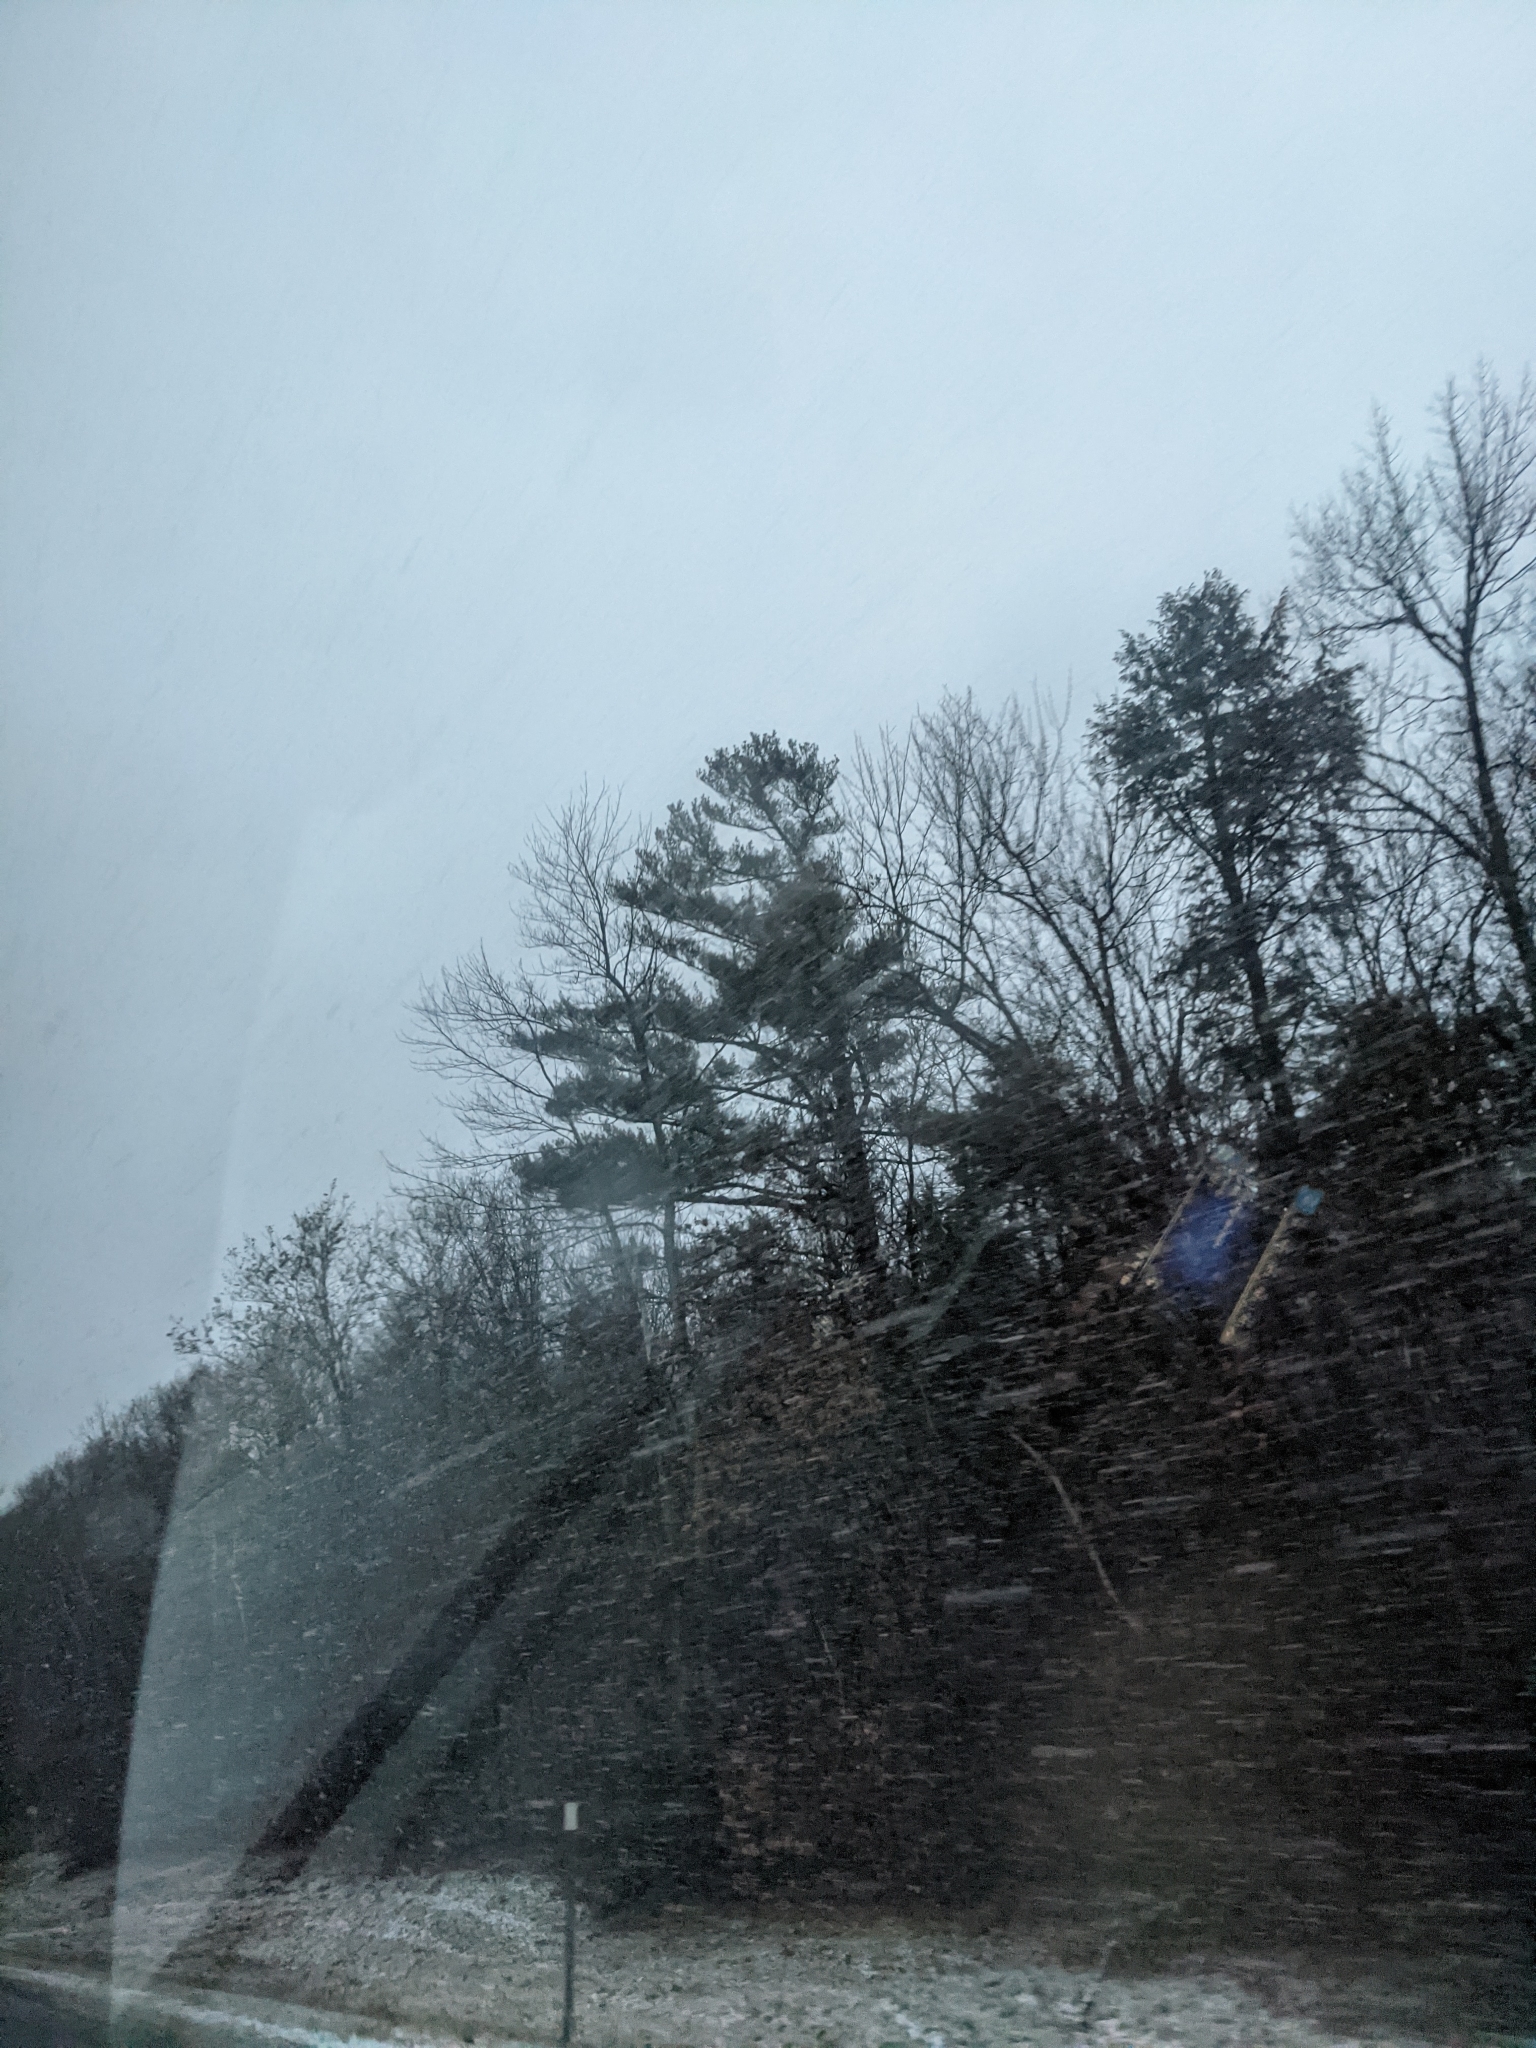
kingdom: Plantae
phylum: Tracheophyta
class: Pinopsida
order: Pinales
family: Pinaceae
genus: Pinus
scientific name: Pinus strobus
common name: Weymouth pine
